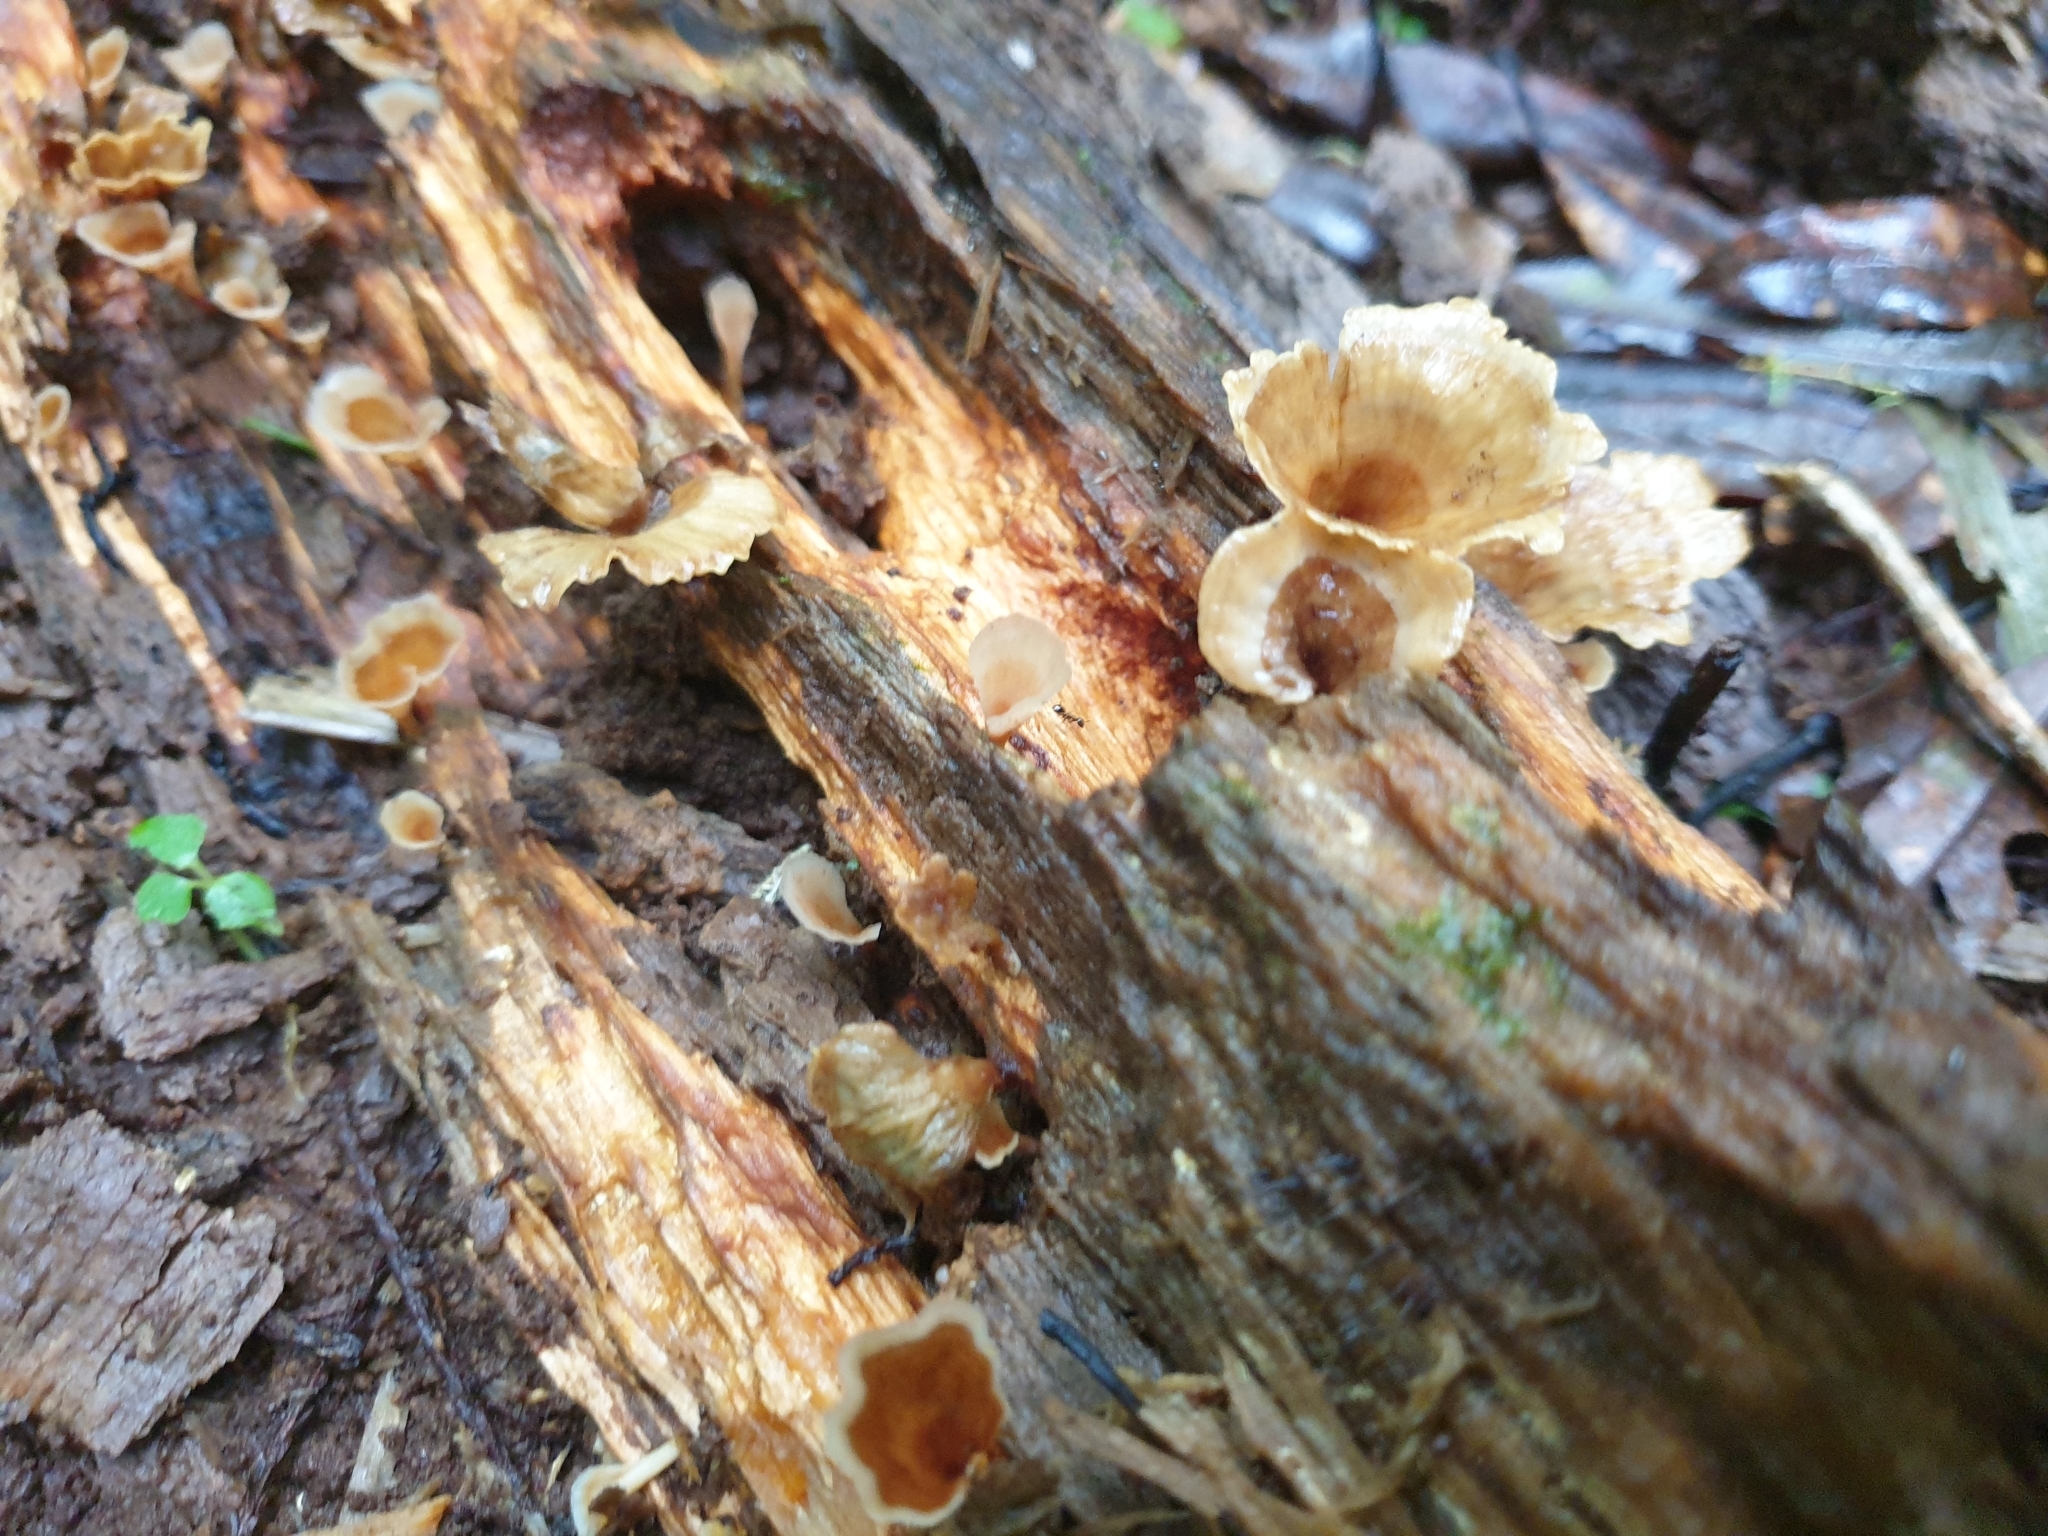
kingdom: Fungi
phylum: Basidiomycota
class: Agaricomycetes
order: Polyporales
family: Podoscyphaceae
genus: Podoscypha
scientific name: Podoscypha petalodes
